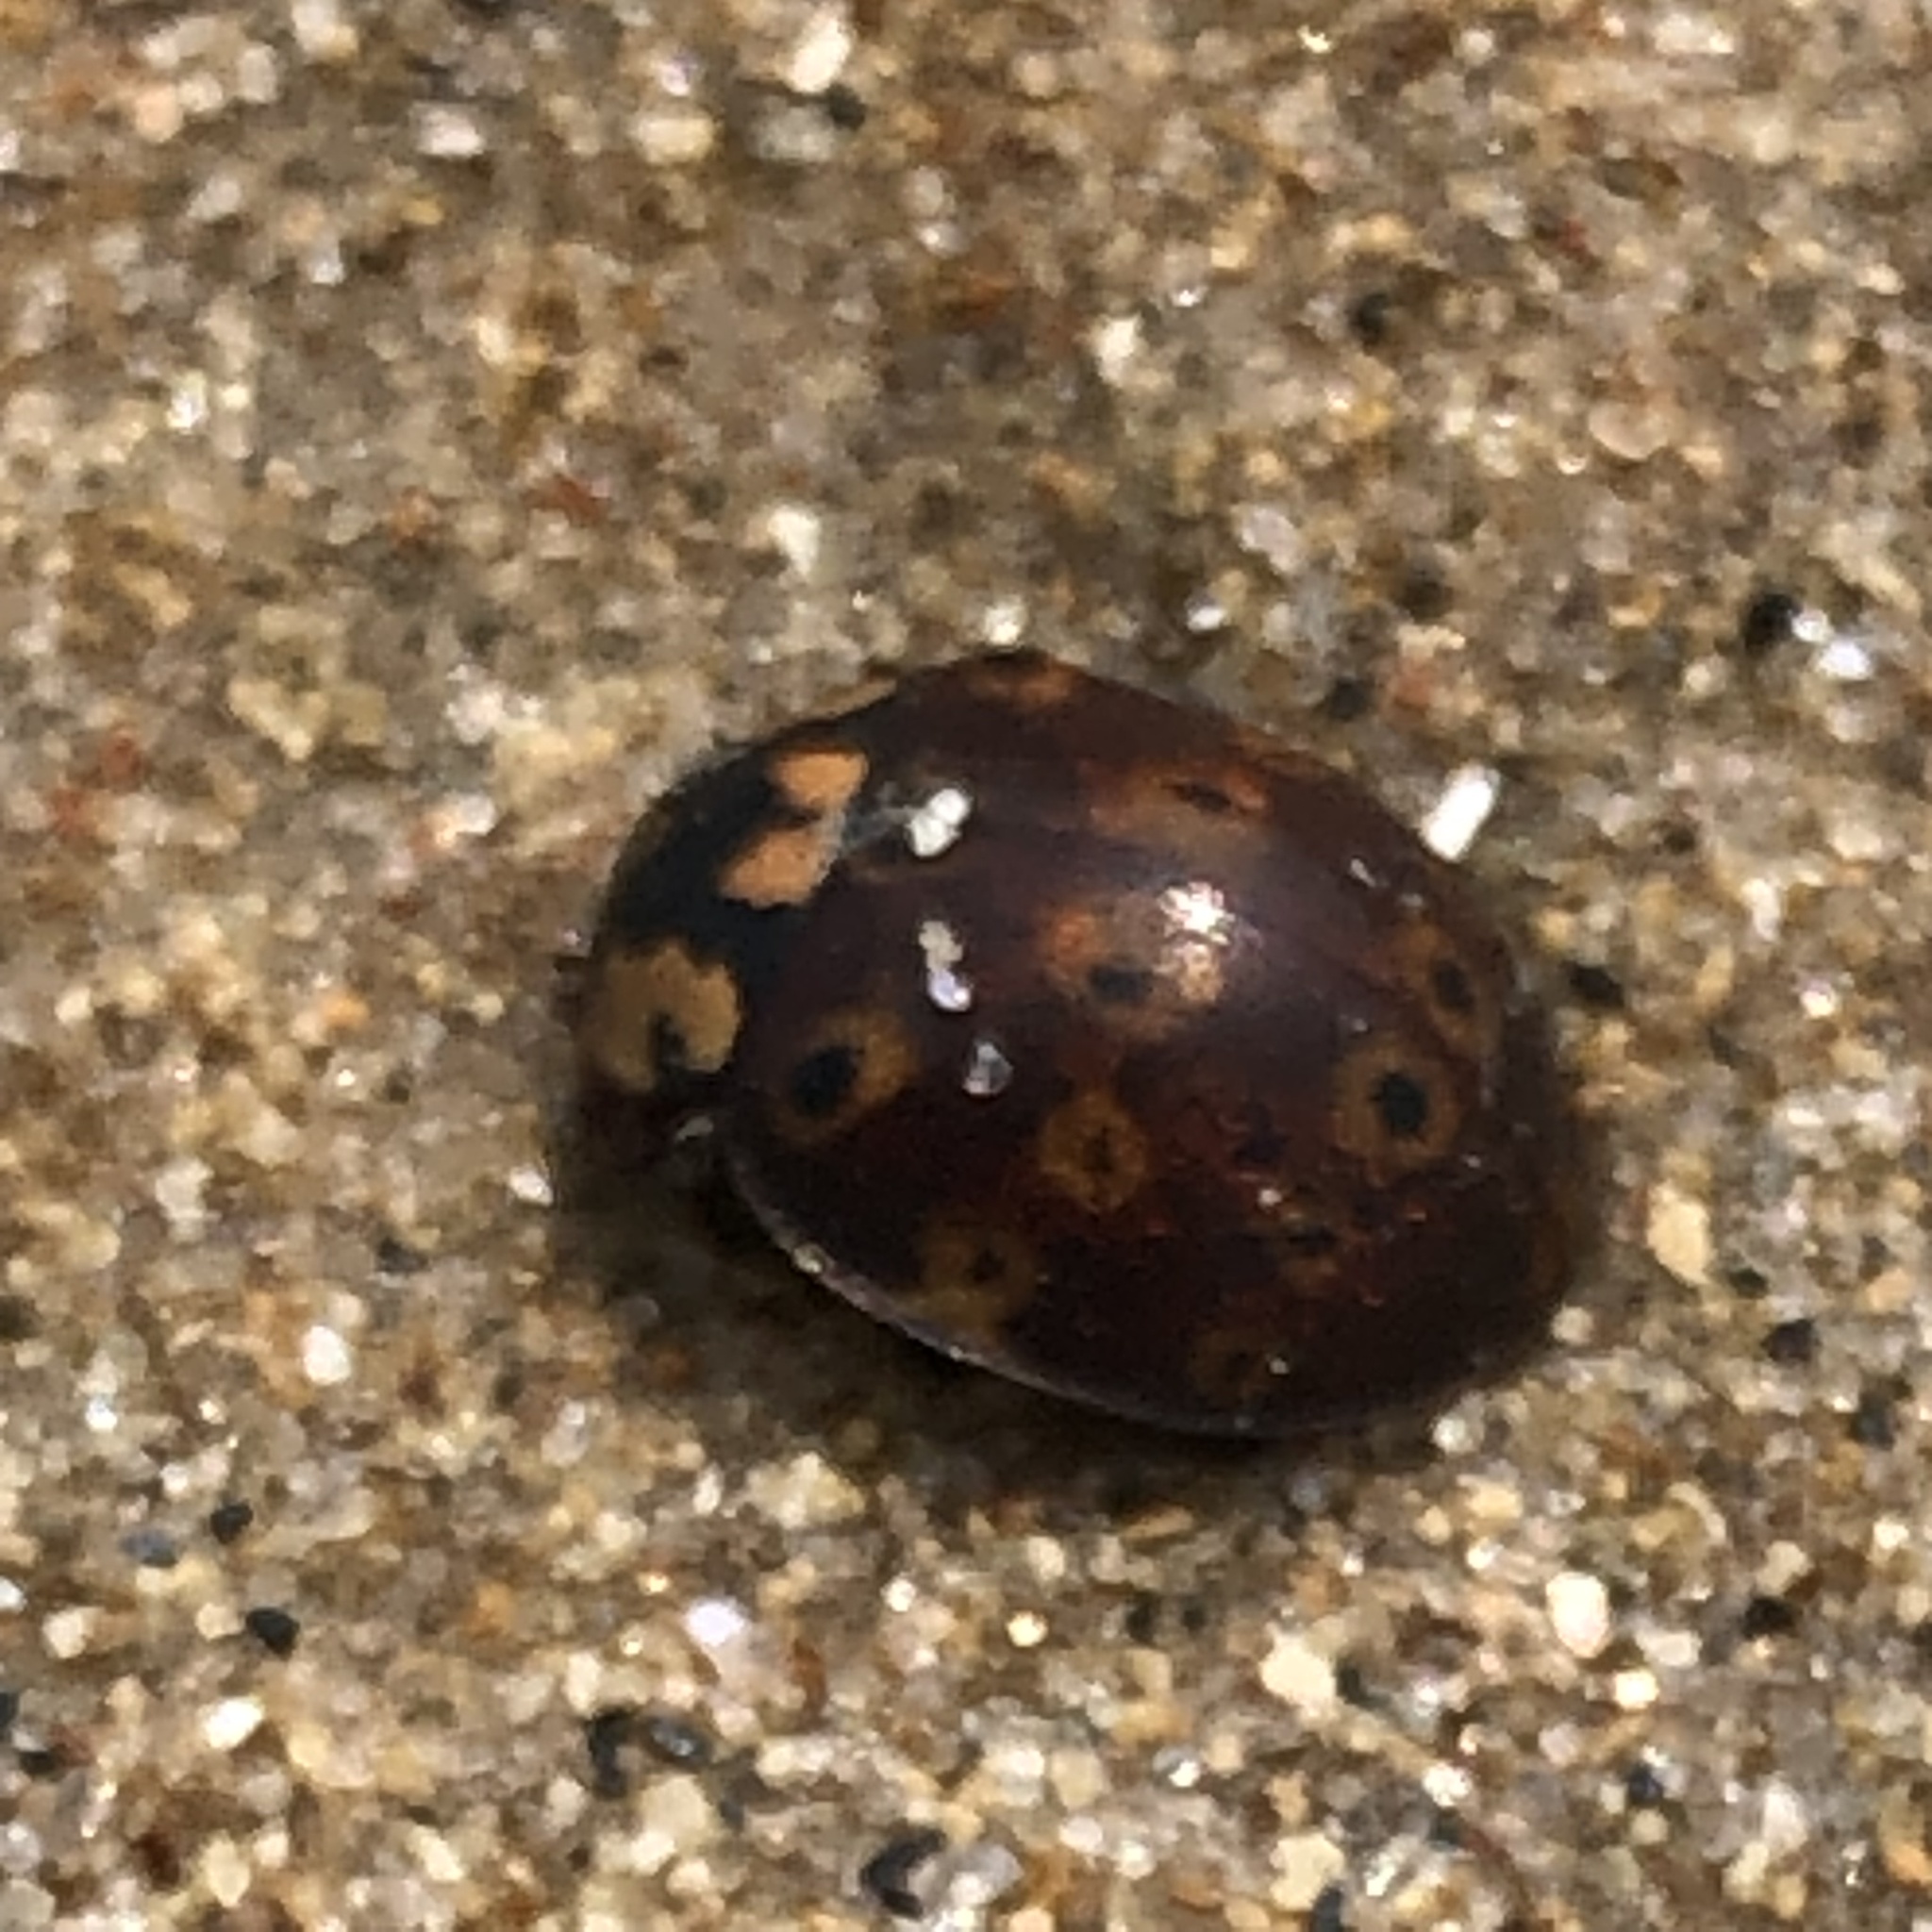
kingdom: Animalia
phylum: Arthropoda
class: Insecta
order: Coleoptera
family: Coccinellidae
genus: Anatis
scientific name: Anatis mali
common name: Eye-spotted lady beetle
